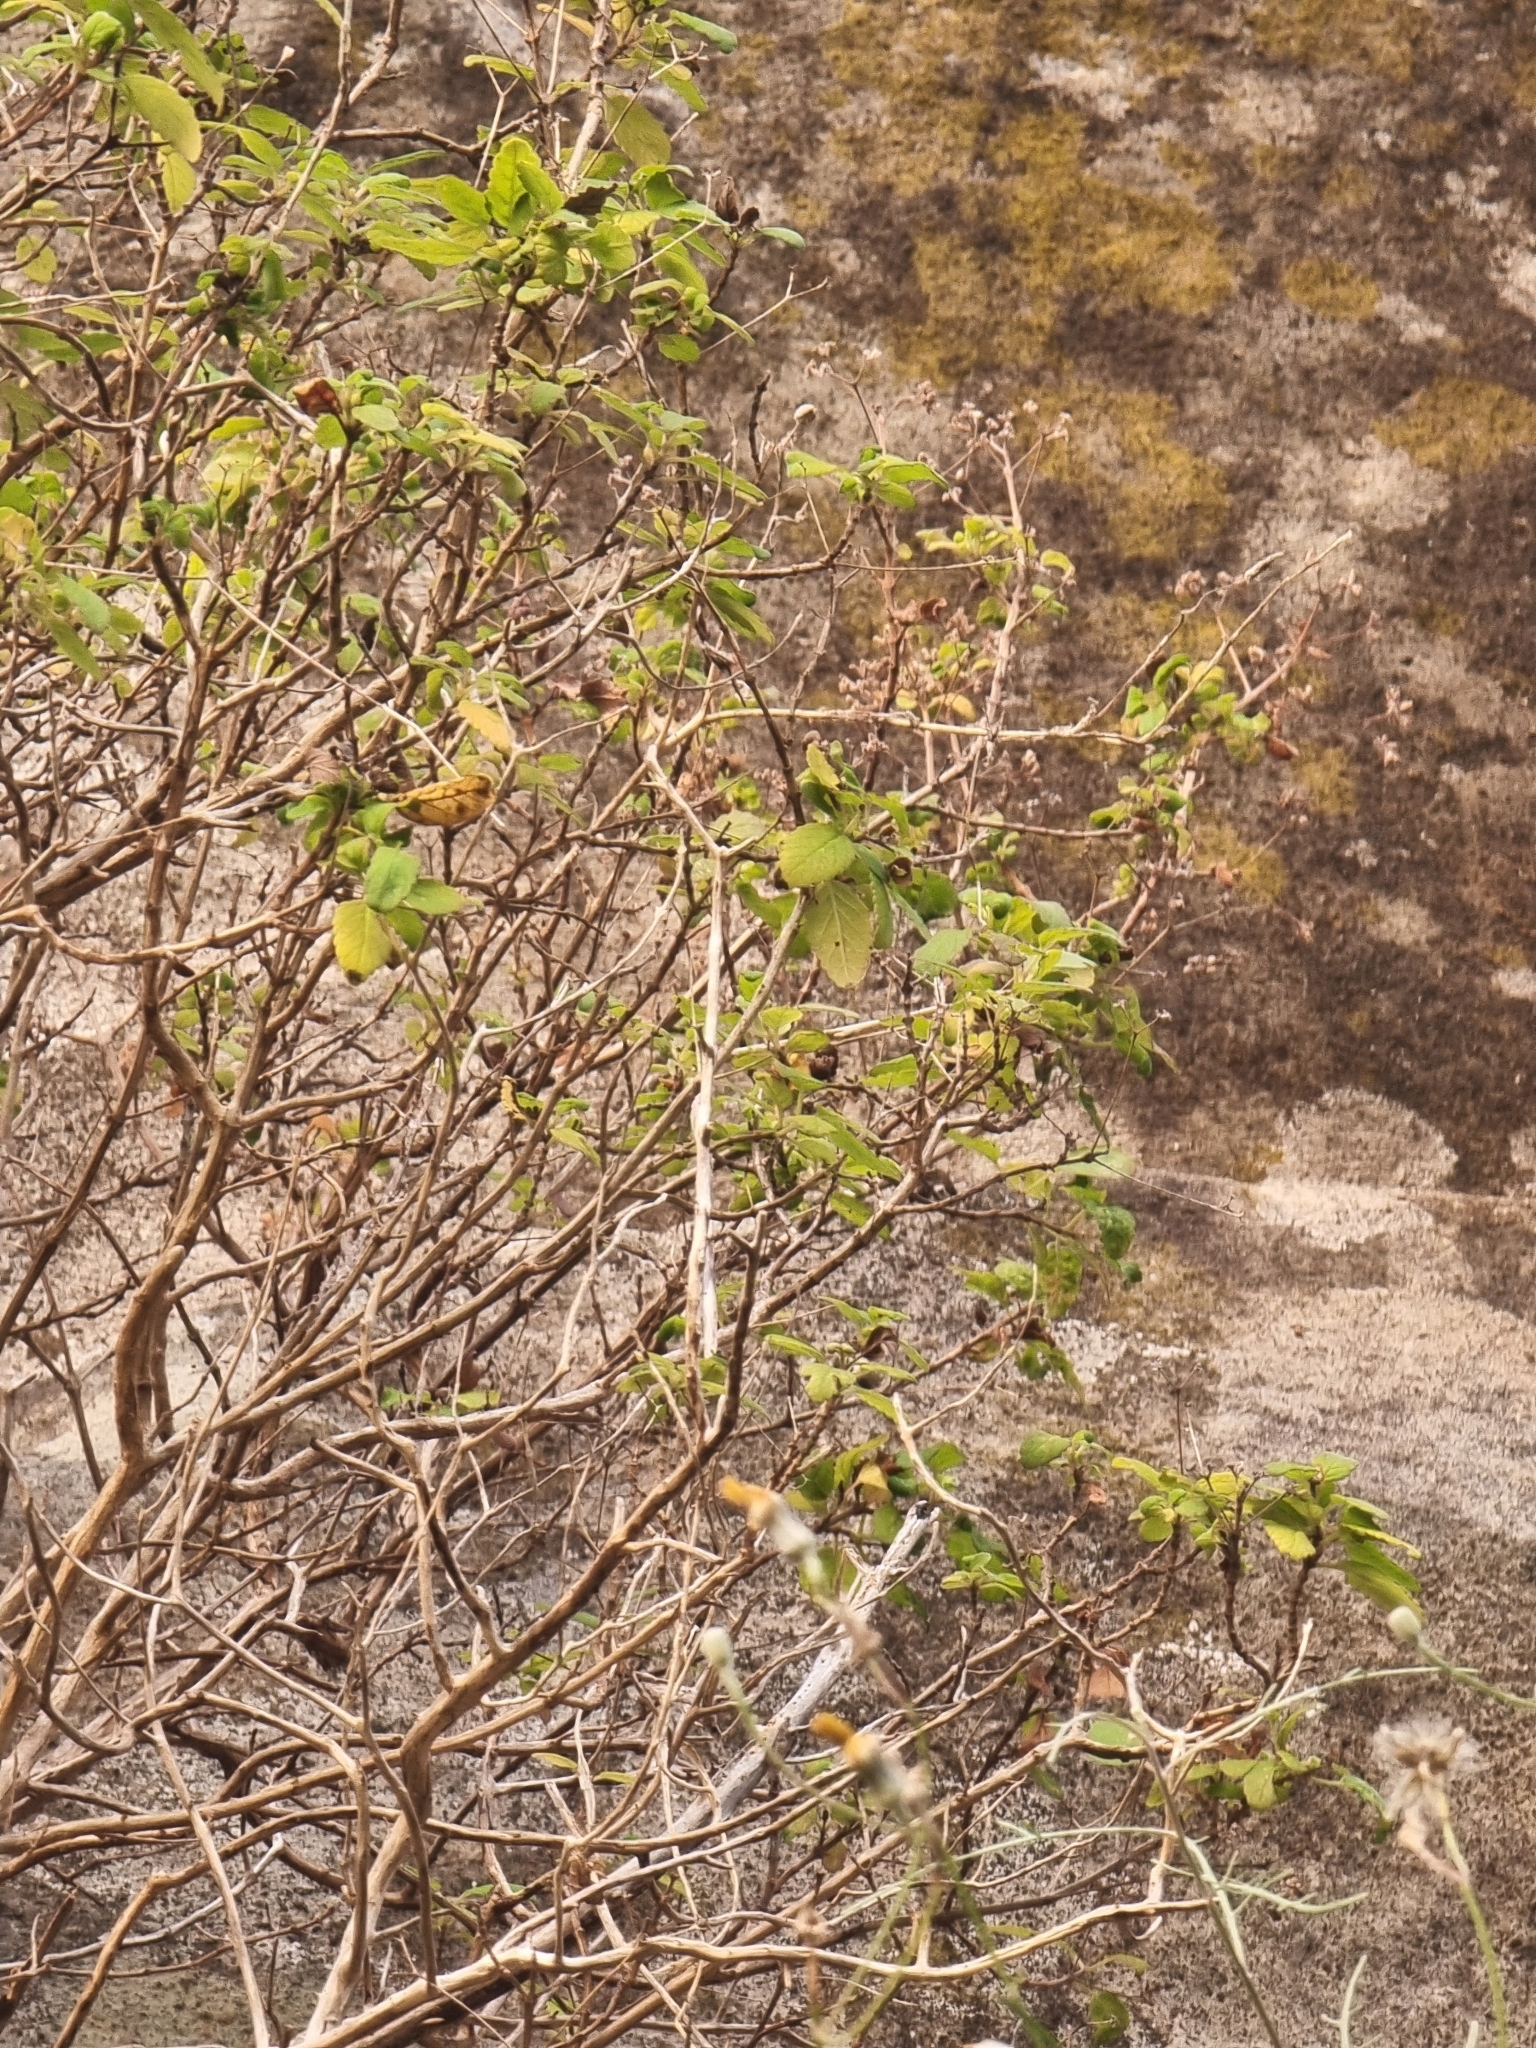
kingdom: Plantae
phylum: Tracheophyta
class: Magnoliopsida
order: Lamiales
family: Lamiaceae
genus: Bystropogon
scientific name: Bystropogon punctatus
